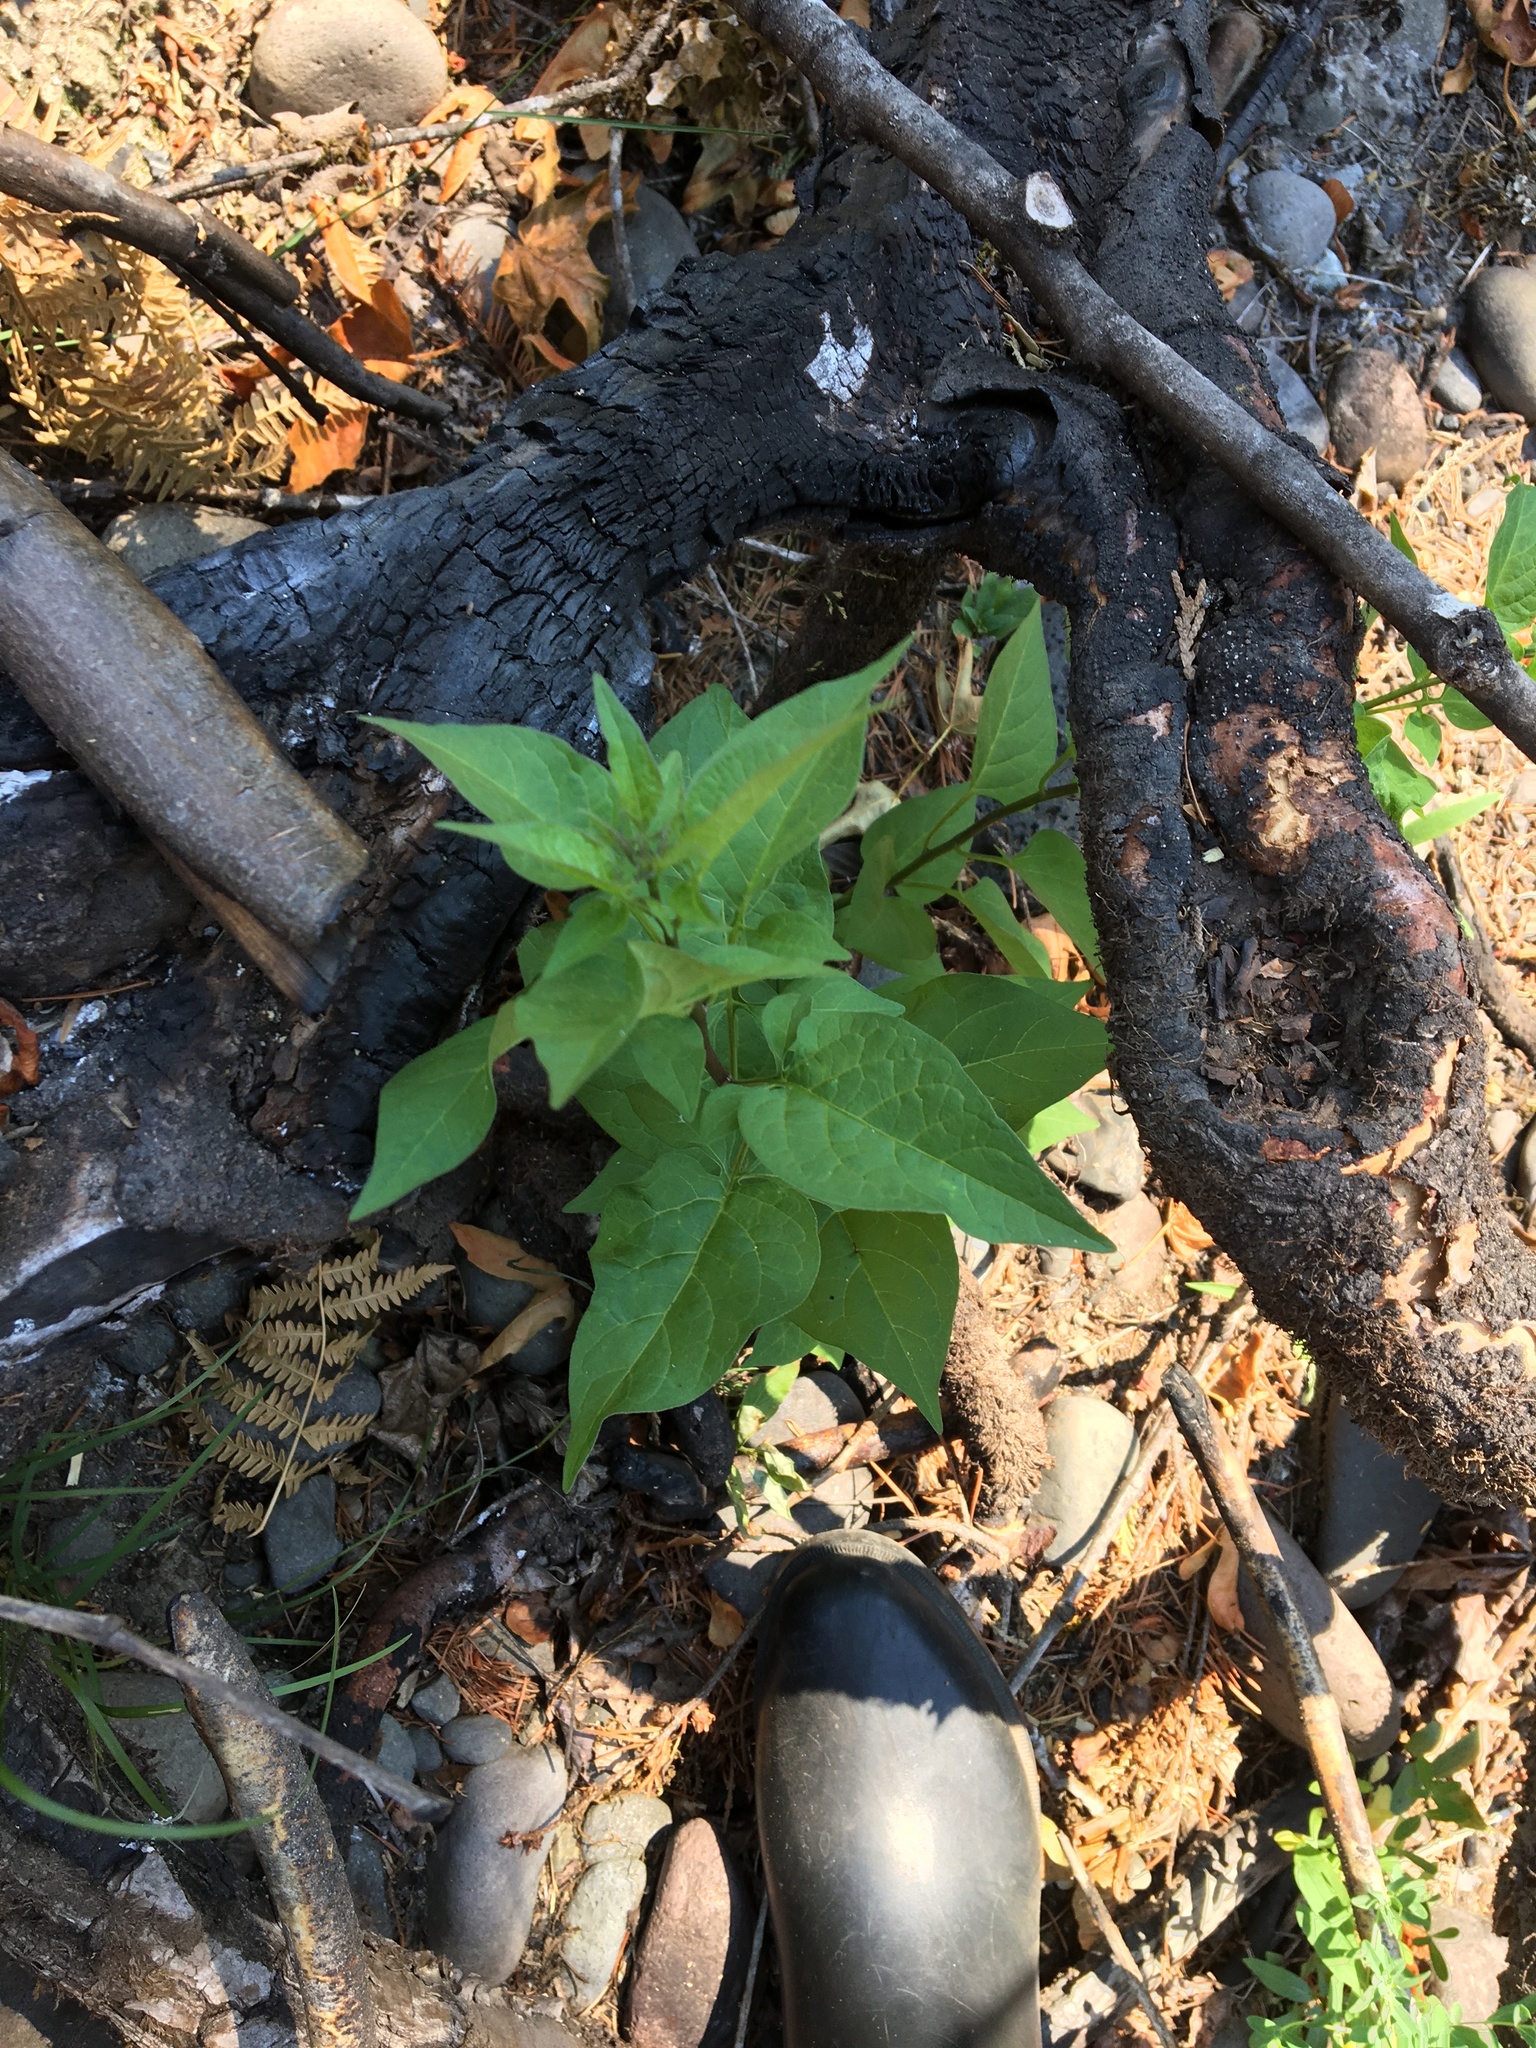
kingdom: Plantae
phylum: Tracheophyta
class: Magnoliopsida
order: Solanales
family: Solanaceae
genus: Solanum
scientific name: Solanum dulcamara
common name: Climbing nightshade
